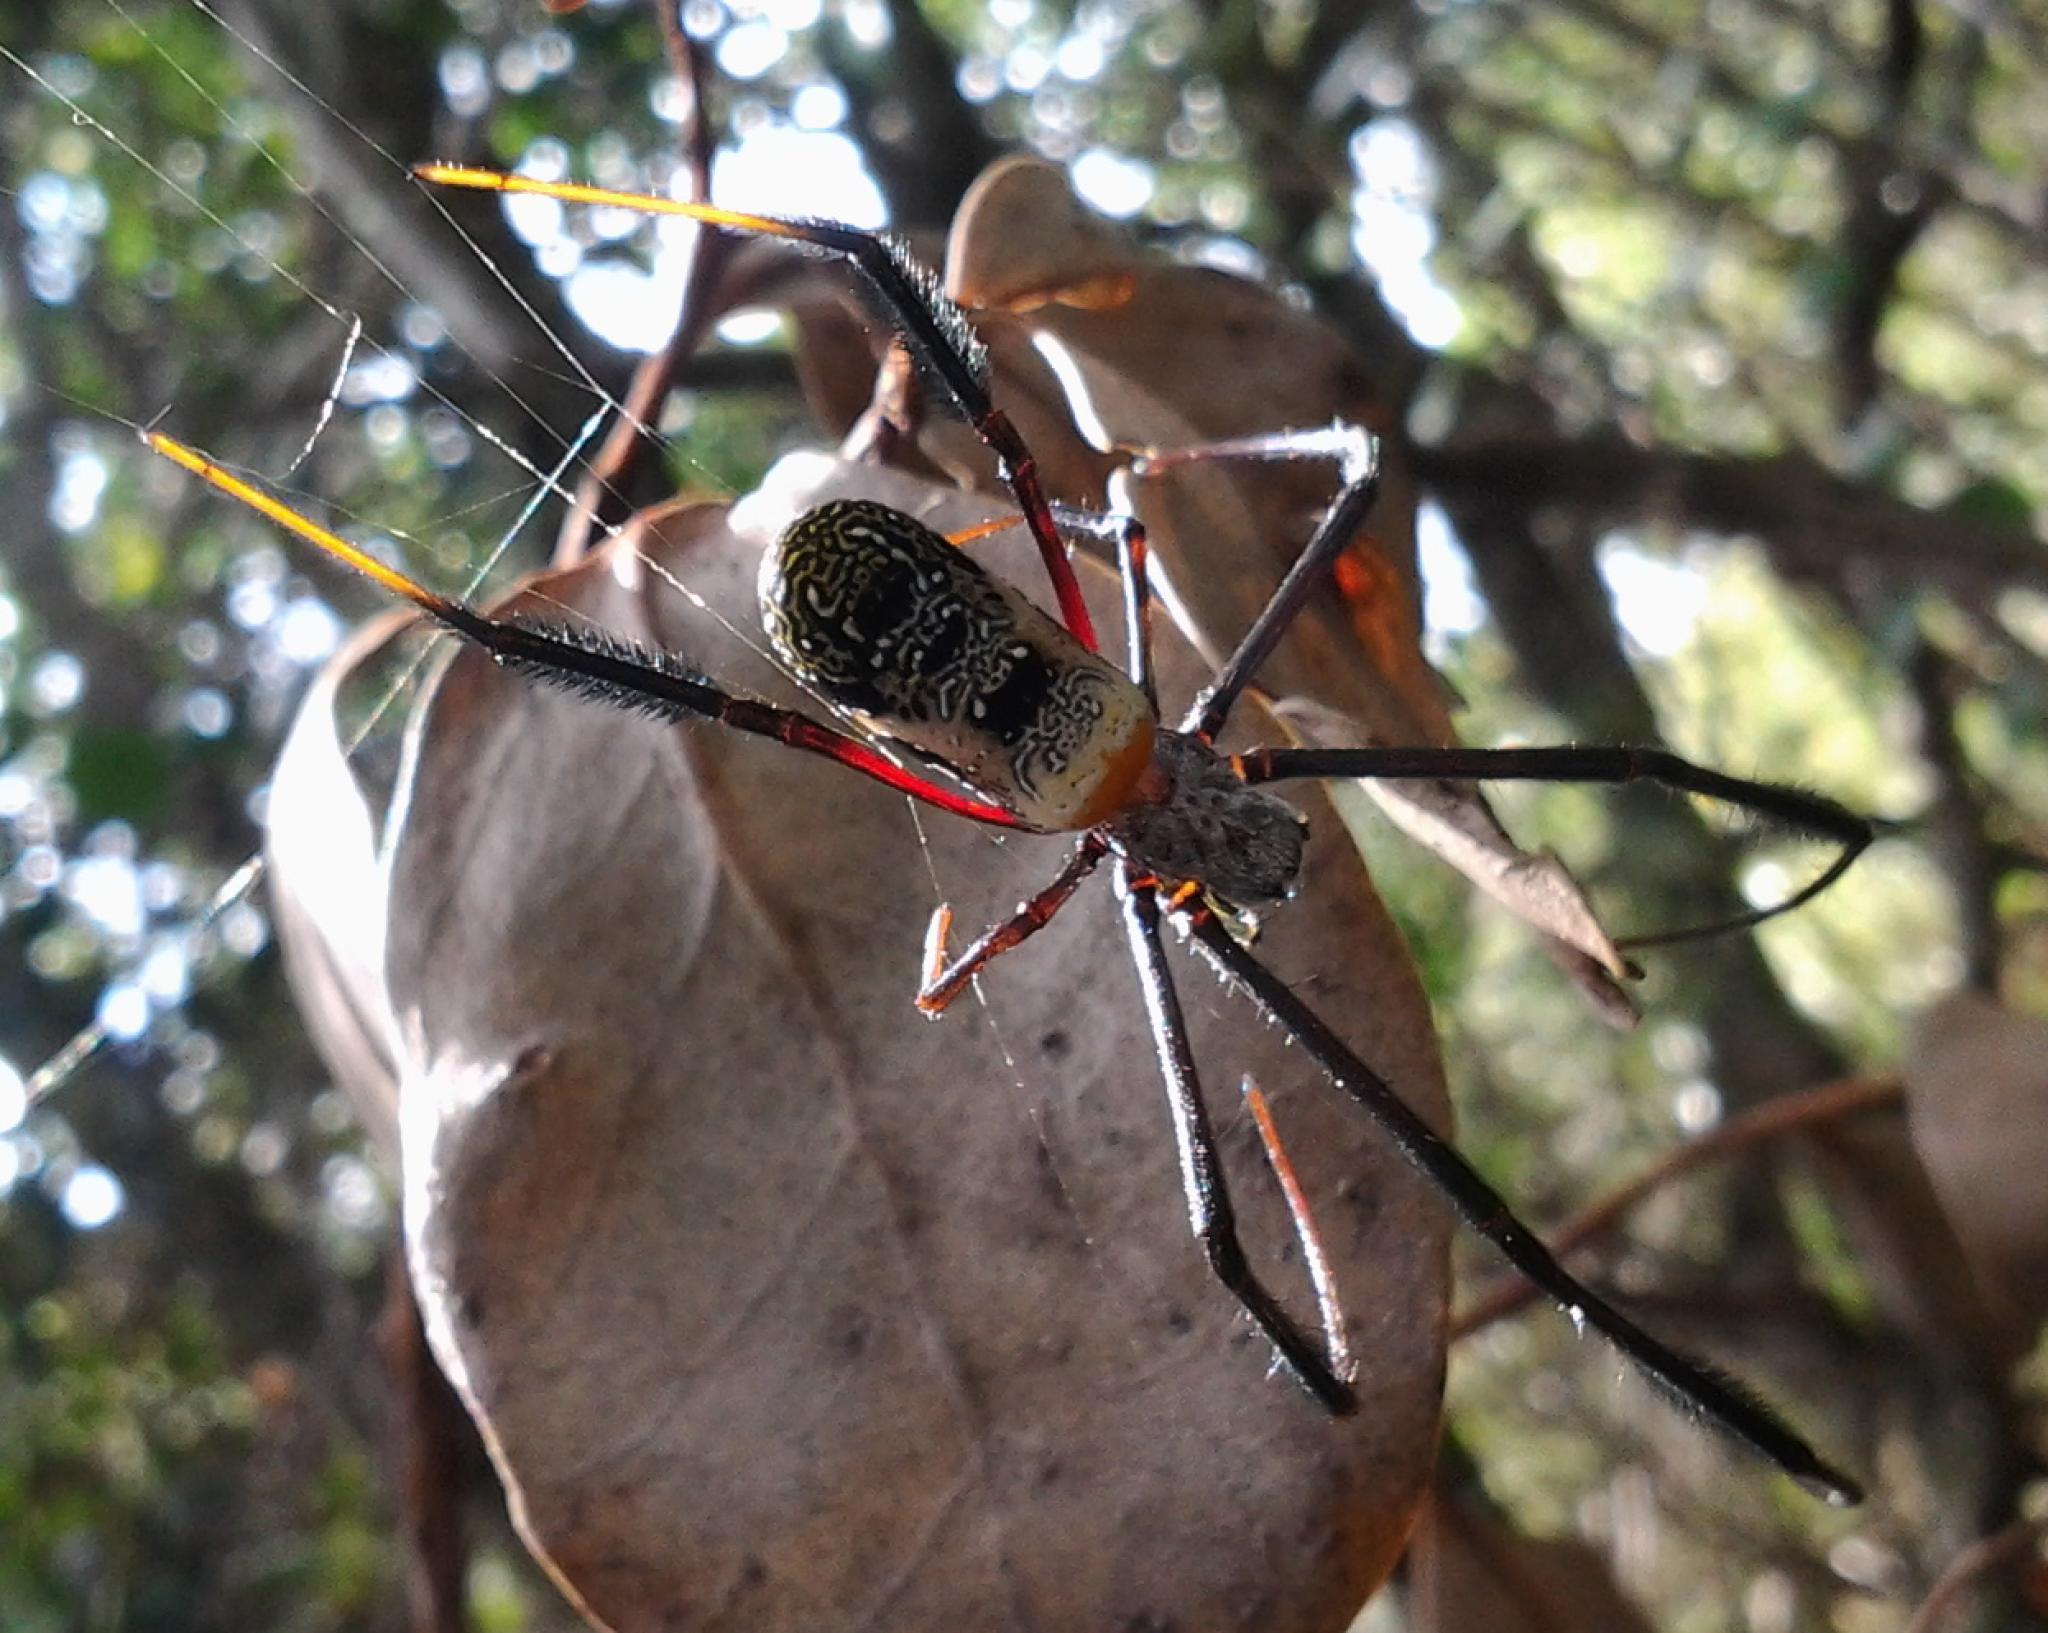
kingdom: Animalia
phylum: Arthropoda
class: Arachnida
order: Araneae
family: Araneidae
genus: Trichonephila
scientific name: Trichonephila fenestrata
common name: Hairy golden orb weaver
